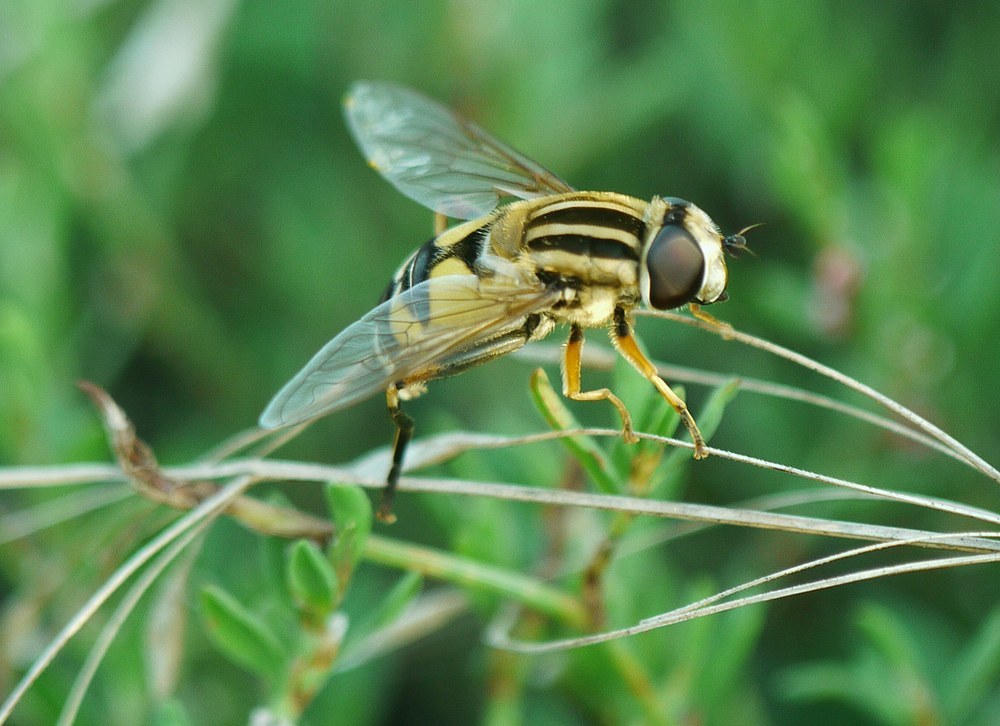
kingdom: Animalia
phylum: Arthropoda
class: Insecta
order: Diptera
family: Syrphidae
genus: Helophilus
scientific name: Helophilus trivittatus
